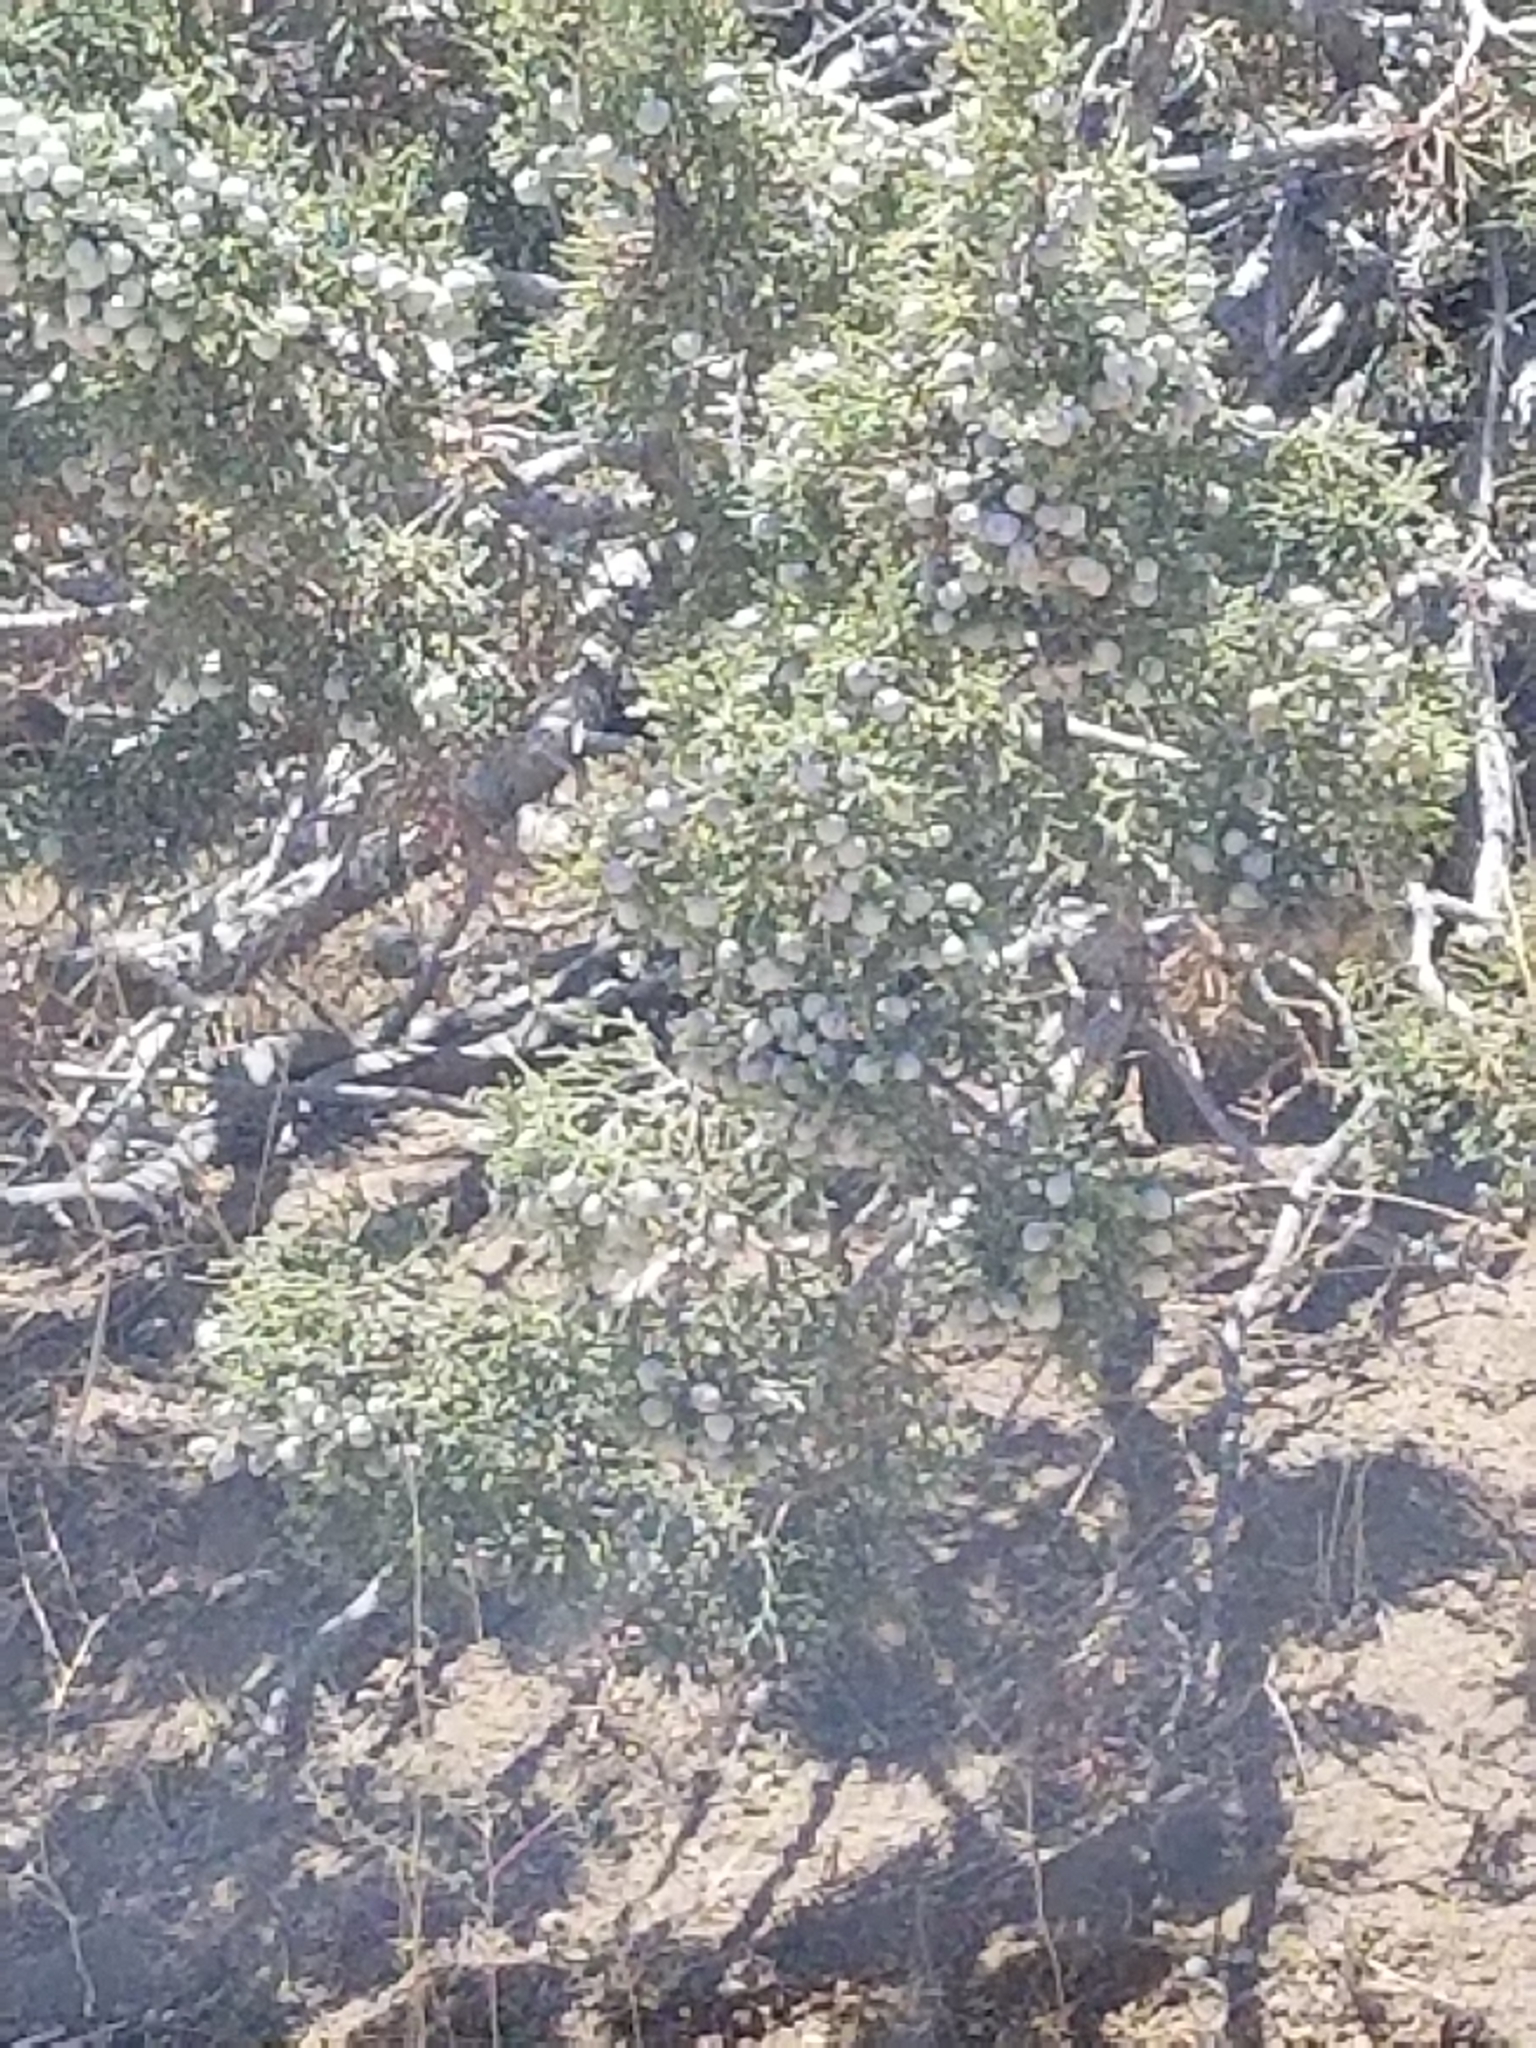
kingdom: Plantae
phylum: Tracheophyta
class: Pinopsida
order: Pinales
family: Cupressaceae
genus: Juniperus
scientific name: Juniperus californica
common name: California juniper
